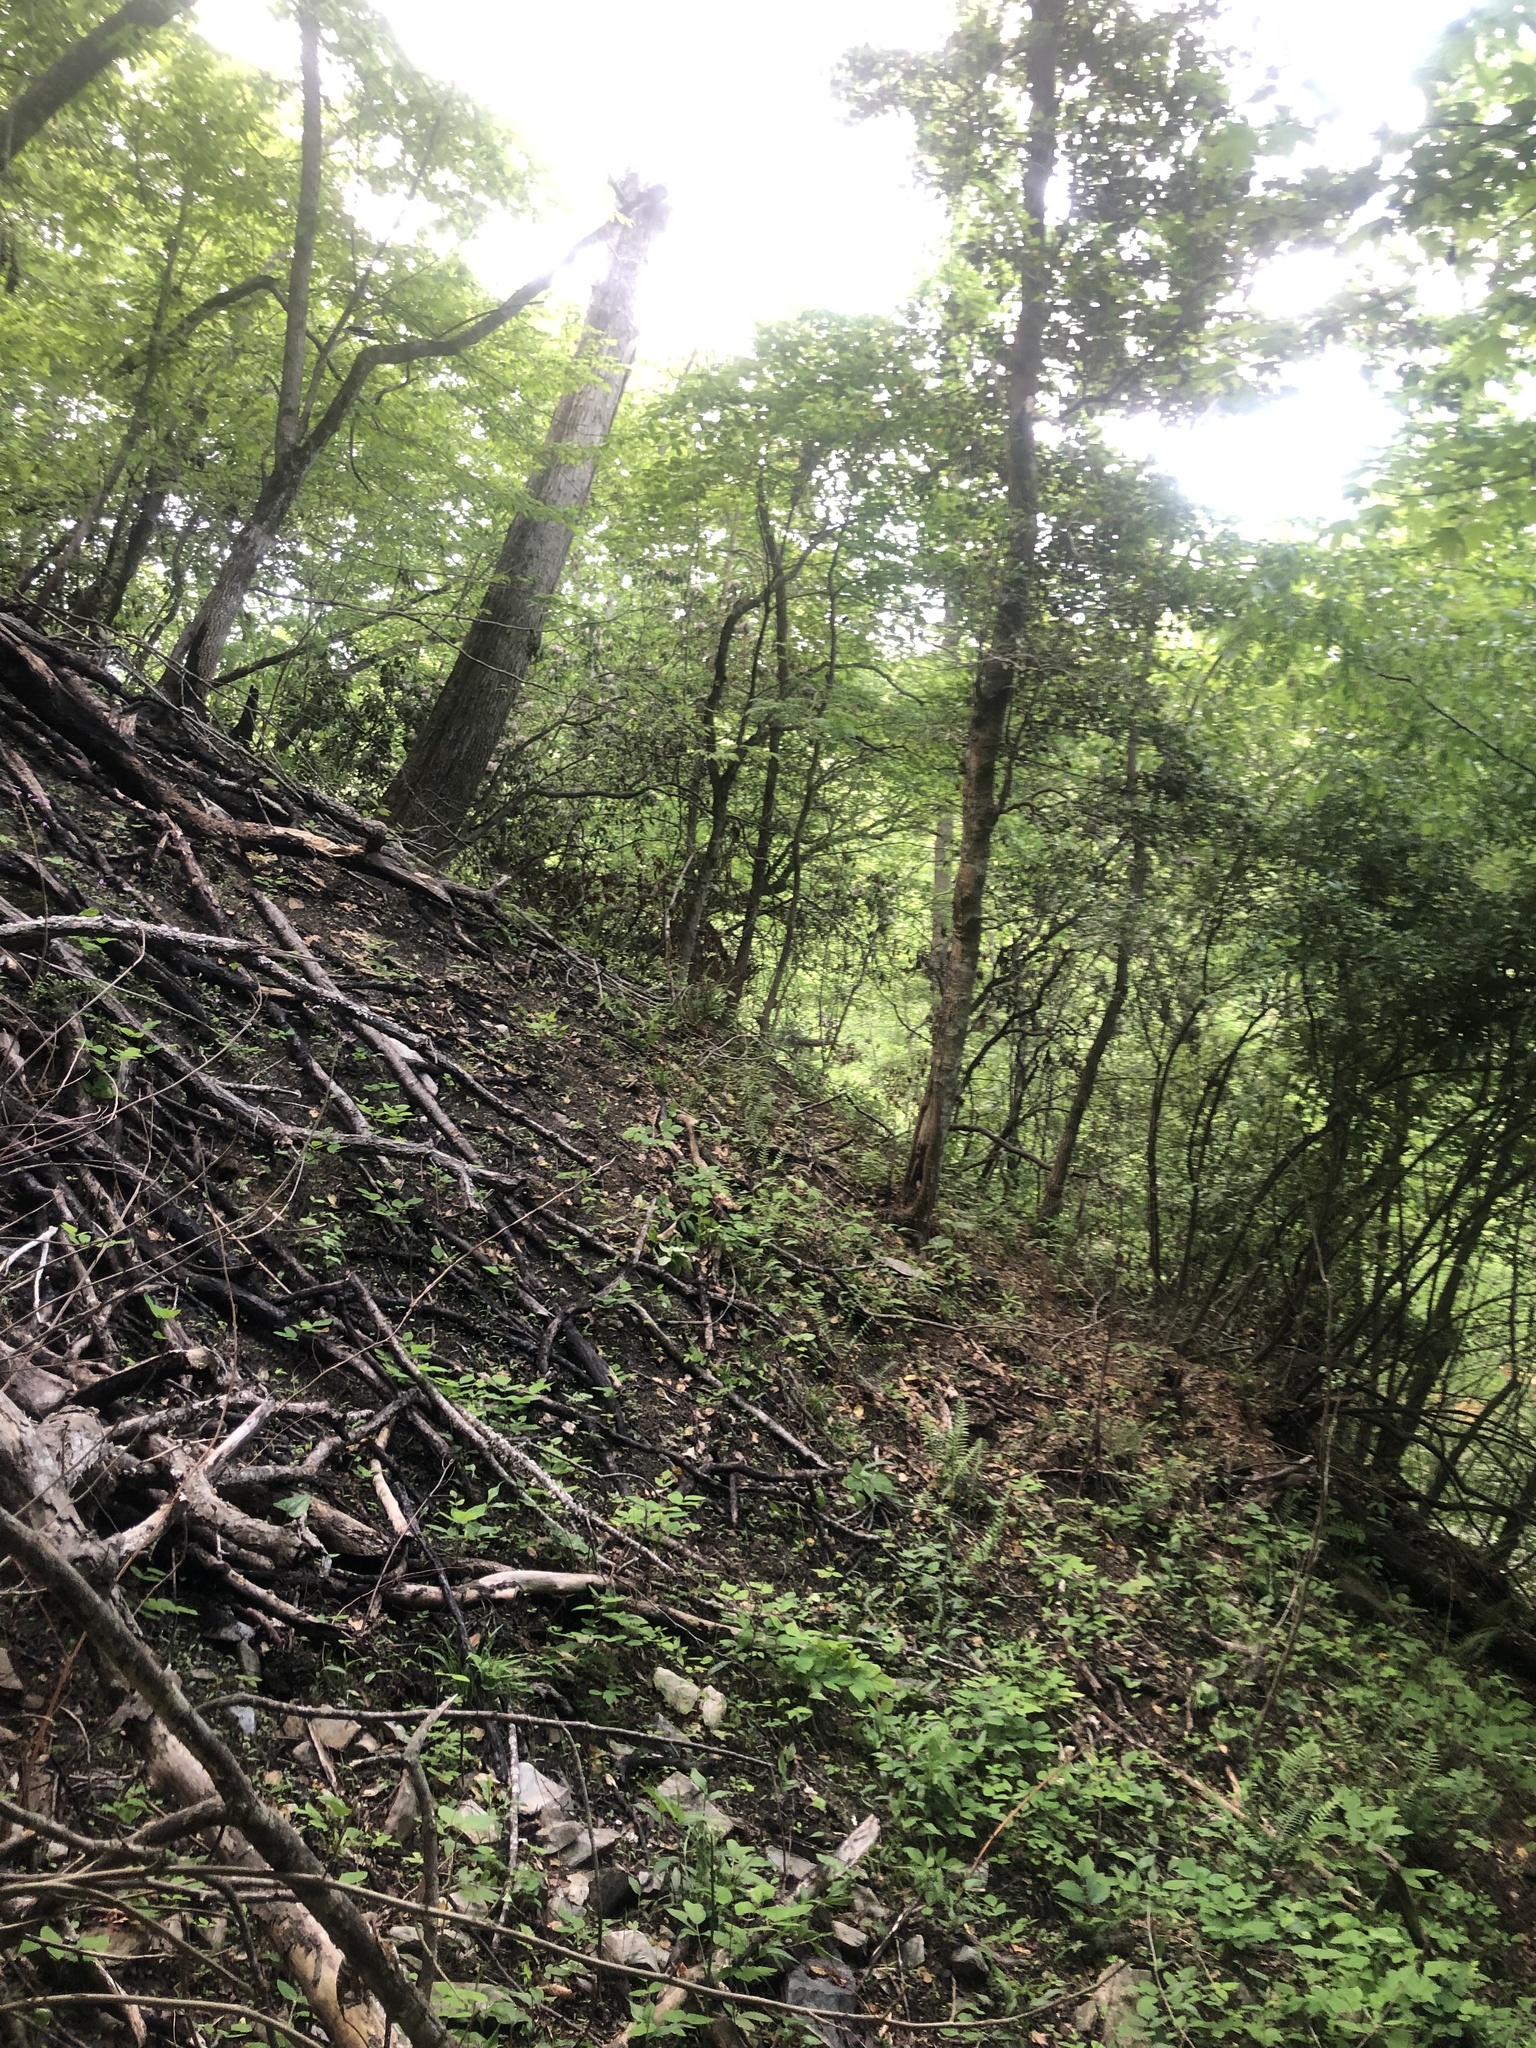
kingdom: Plantae
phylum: Tracheophyta
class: Magnoliopsida
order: Asterales
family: Asteraceae
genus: Cirsium
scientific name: Cirsium carolinianum
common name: Carolina thistle
